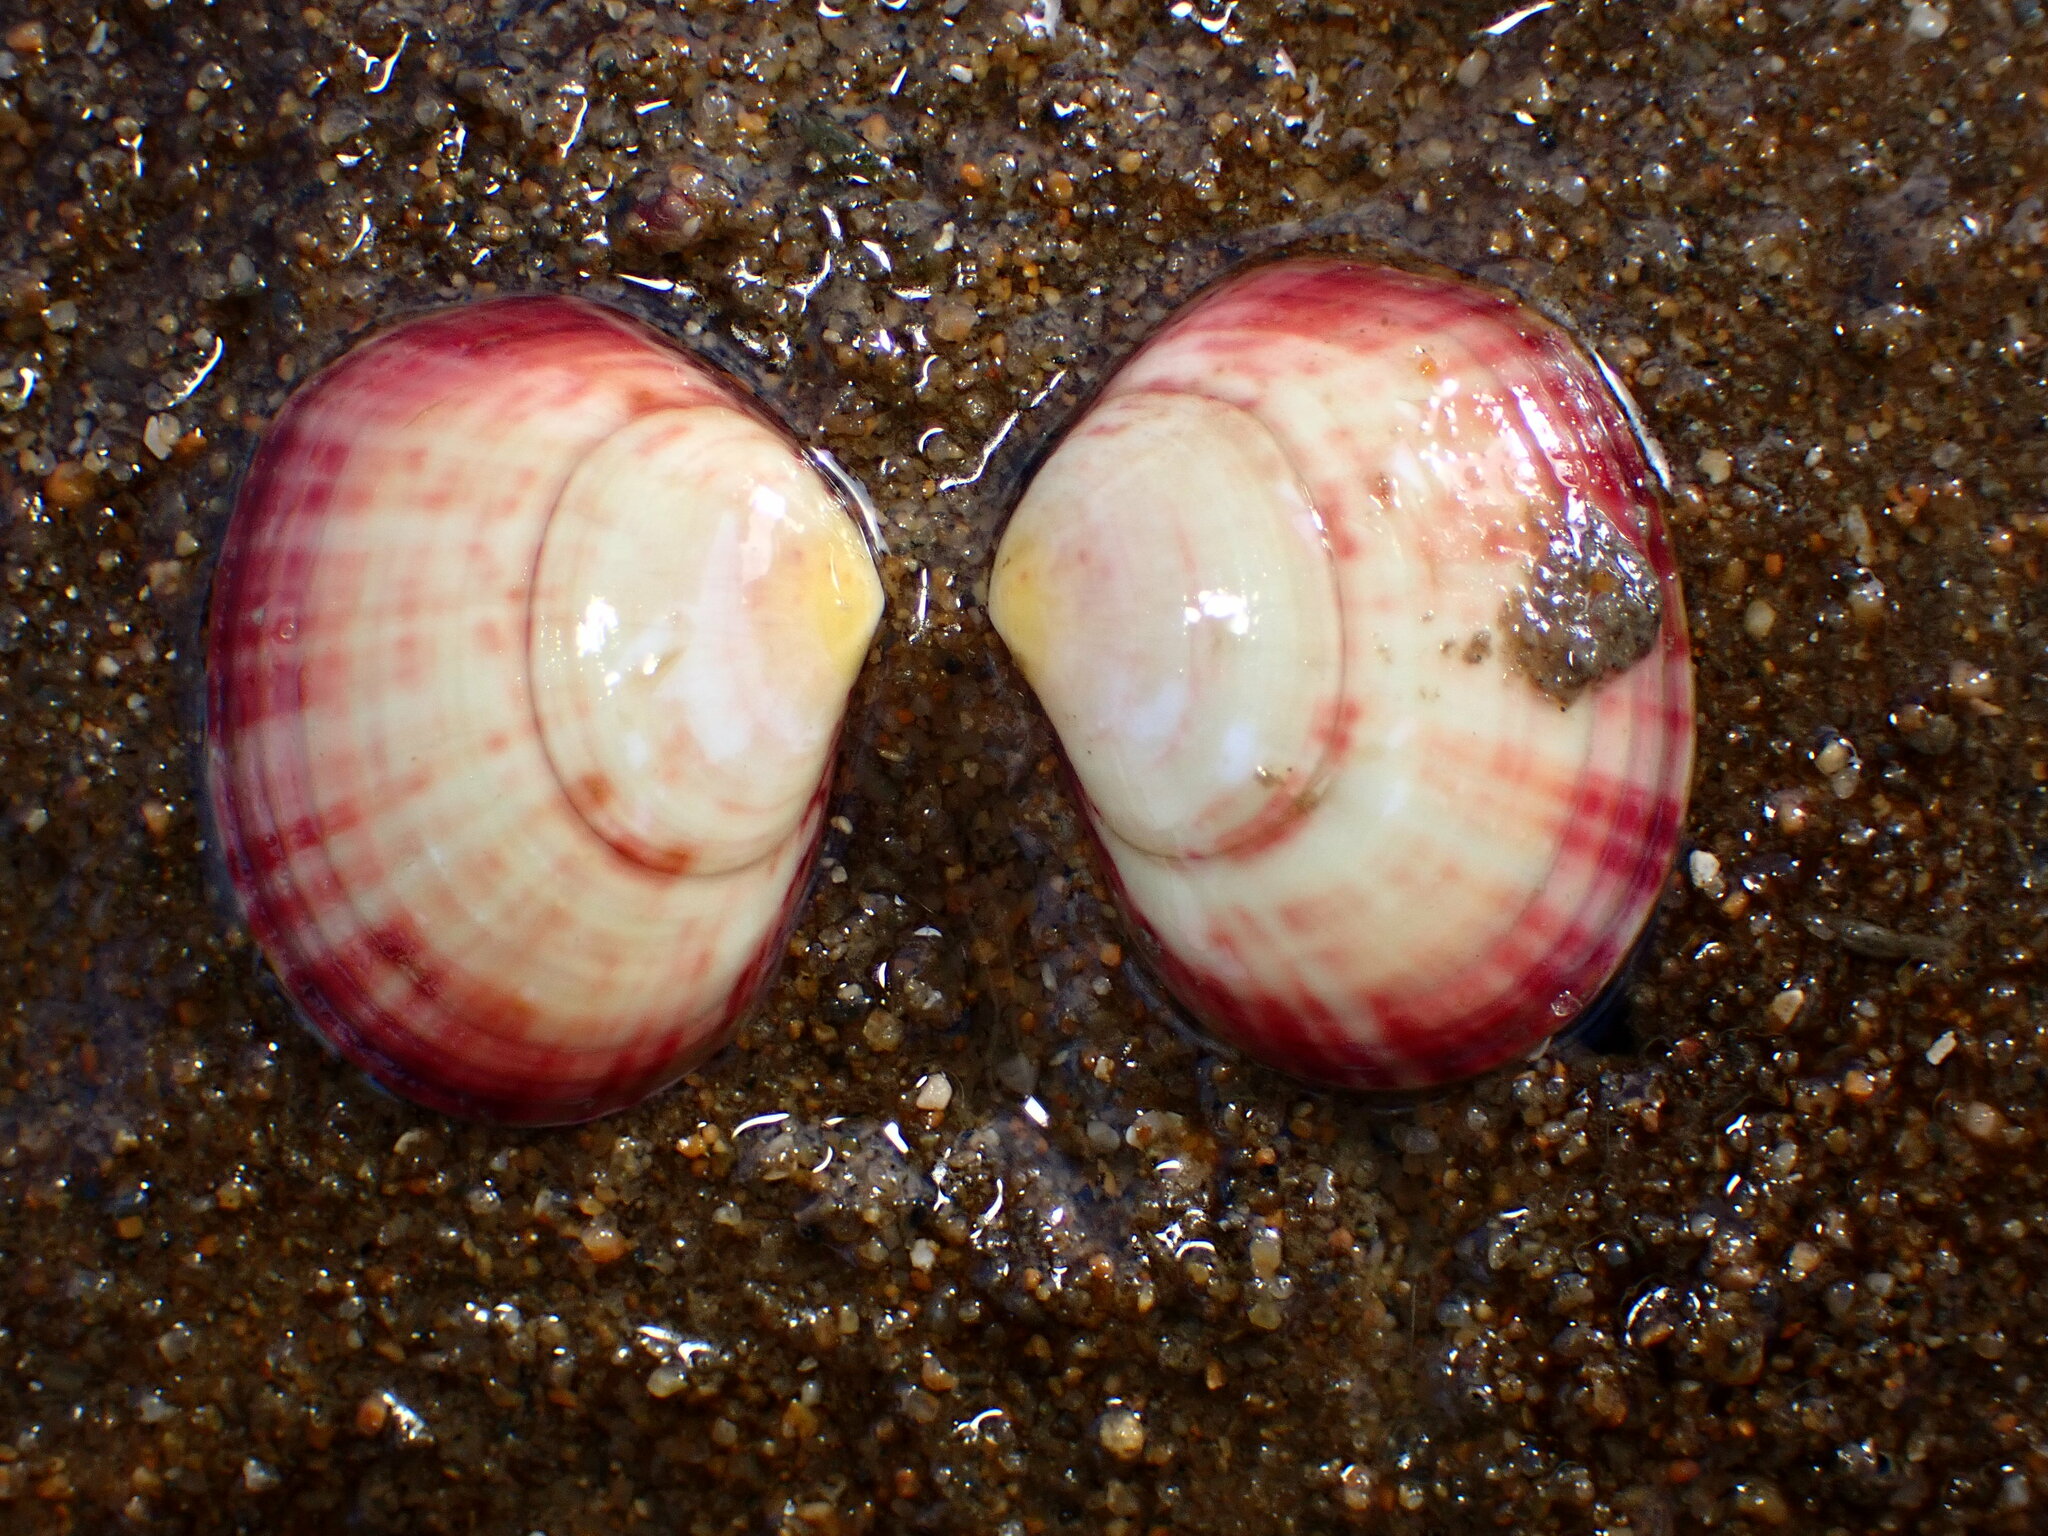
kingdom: Animalia
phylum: Mollusca
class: Bivalvia
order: Cardiida
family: Semelidae
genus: Semele
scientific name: Semele rubropicta
